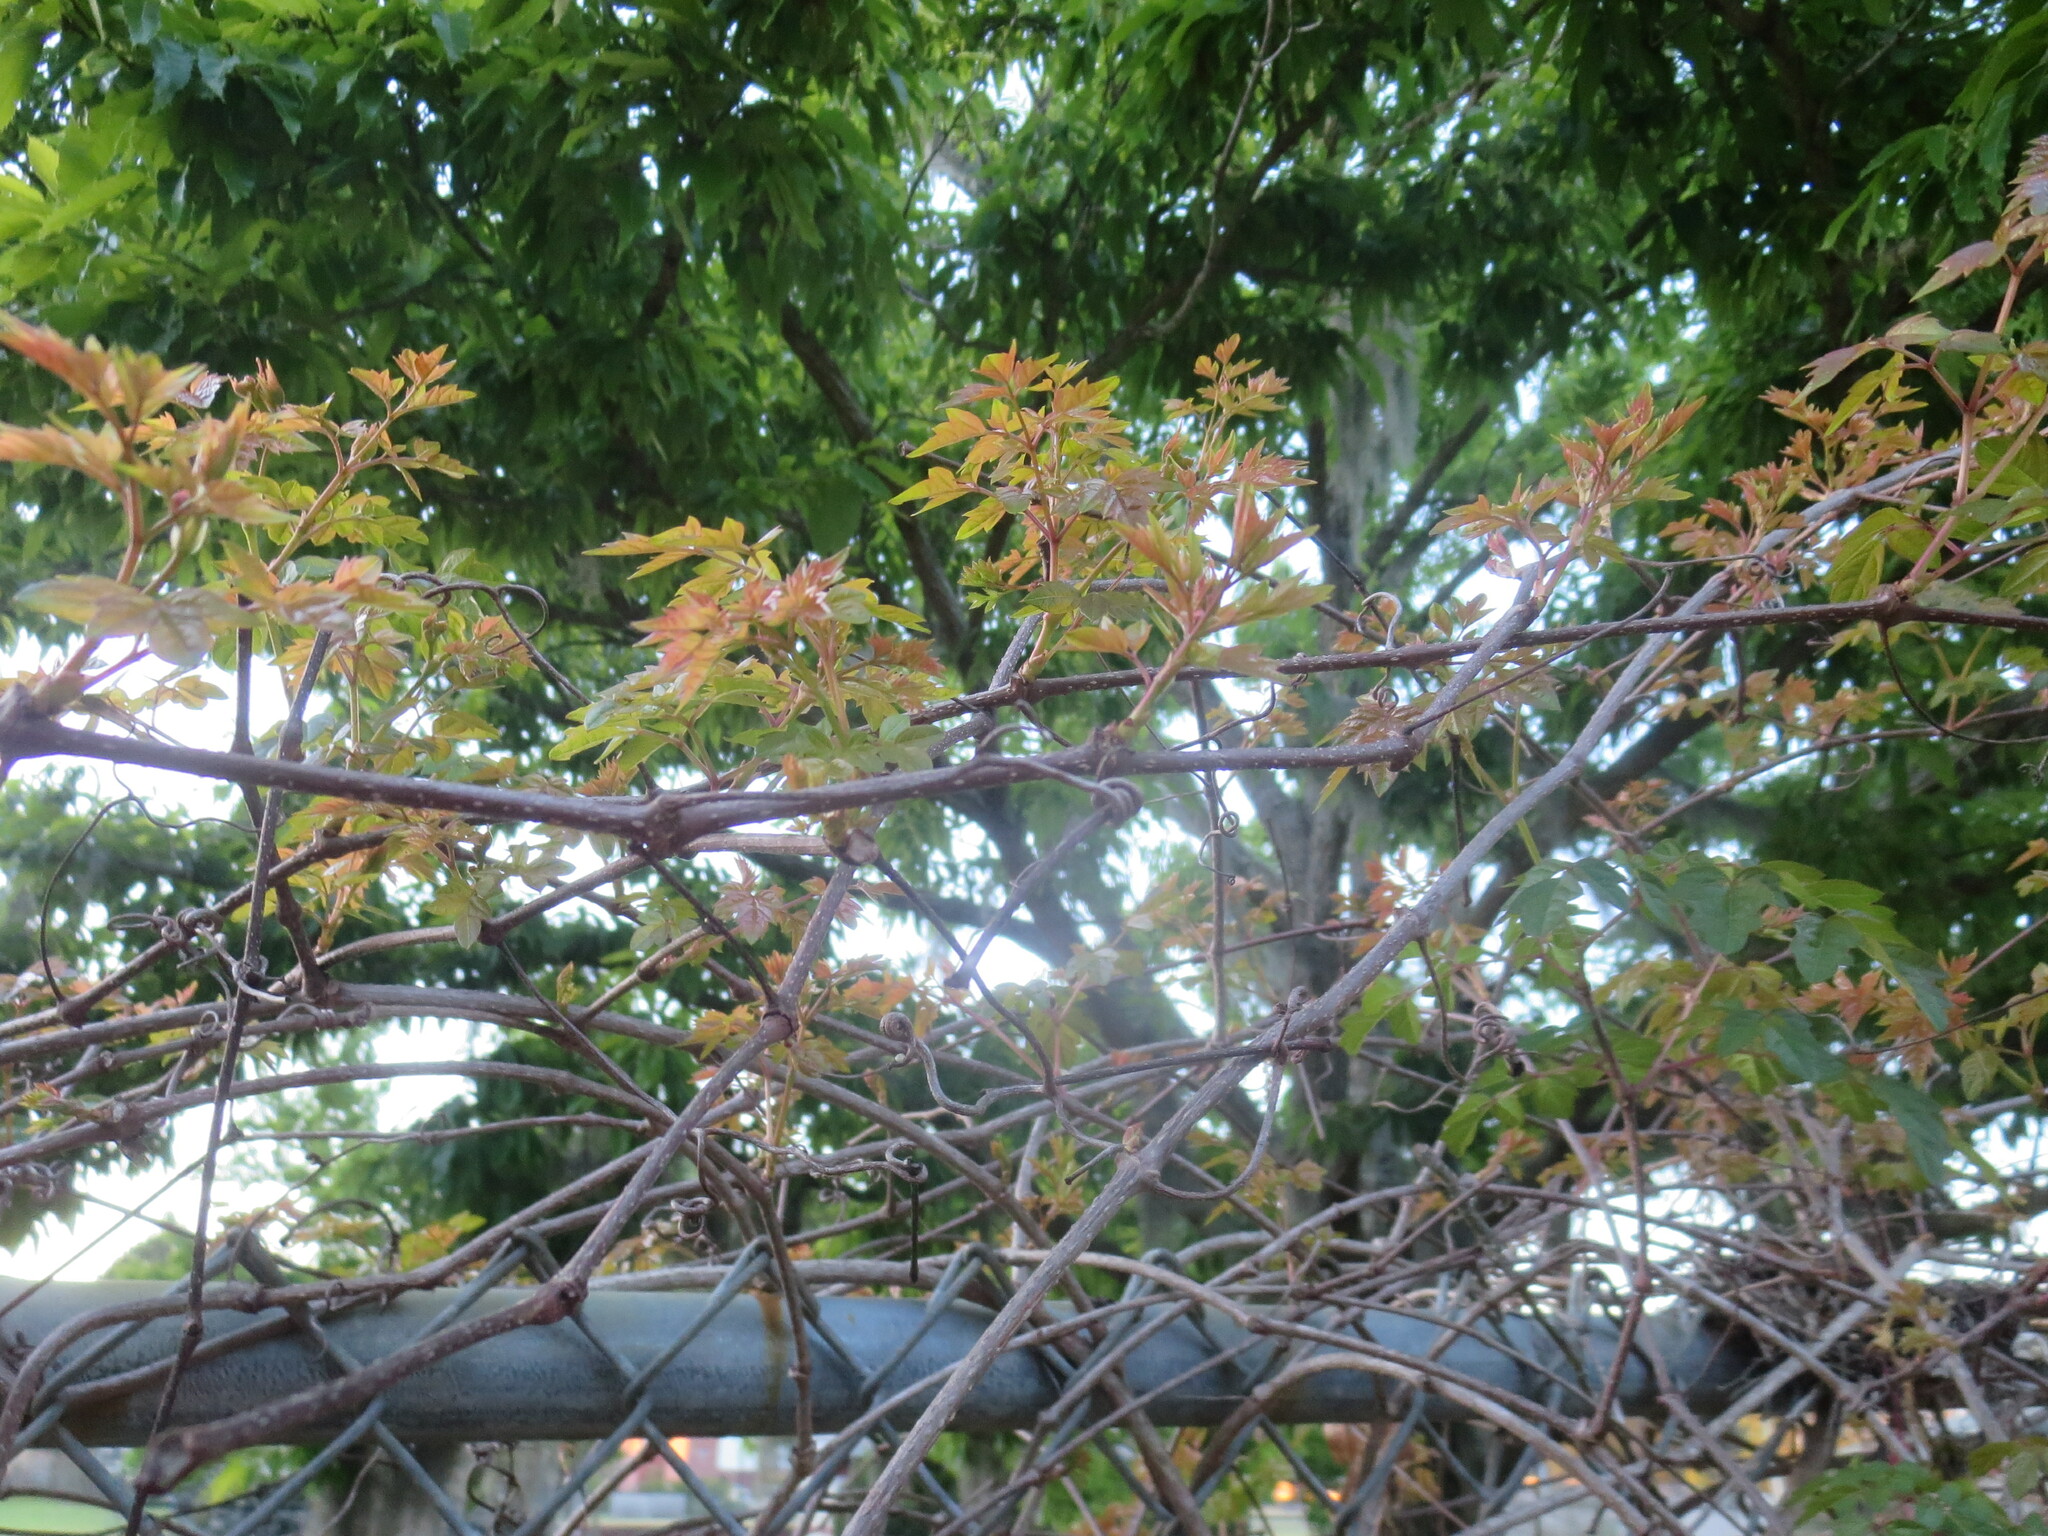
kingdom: Plantae
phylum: Tracheophyta
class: Magnoliopsida
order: Vitales
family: Vitaceae
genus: Nekemias
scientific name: Nekemias arborea
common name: Peppervine
